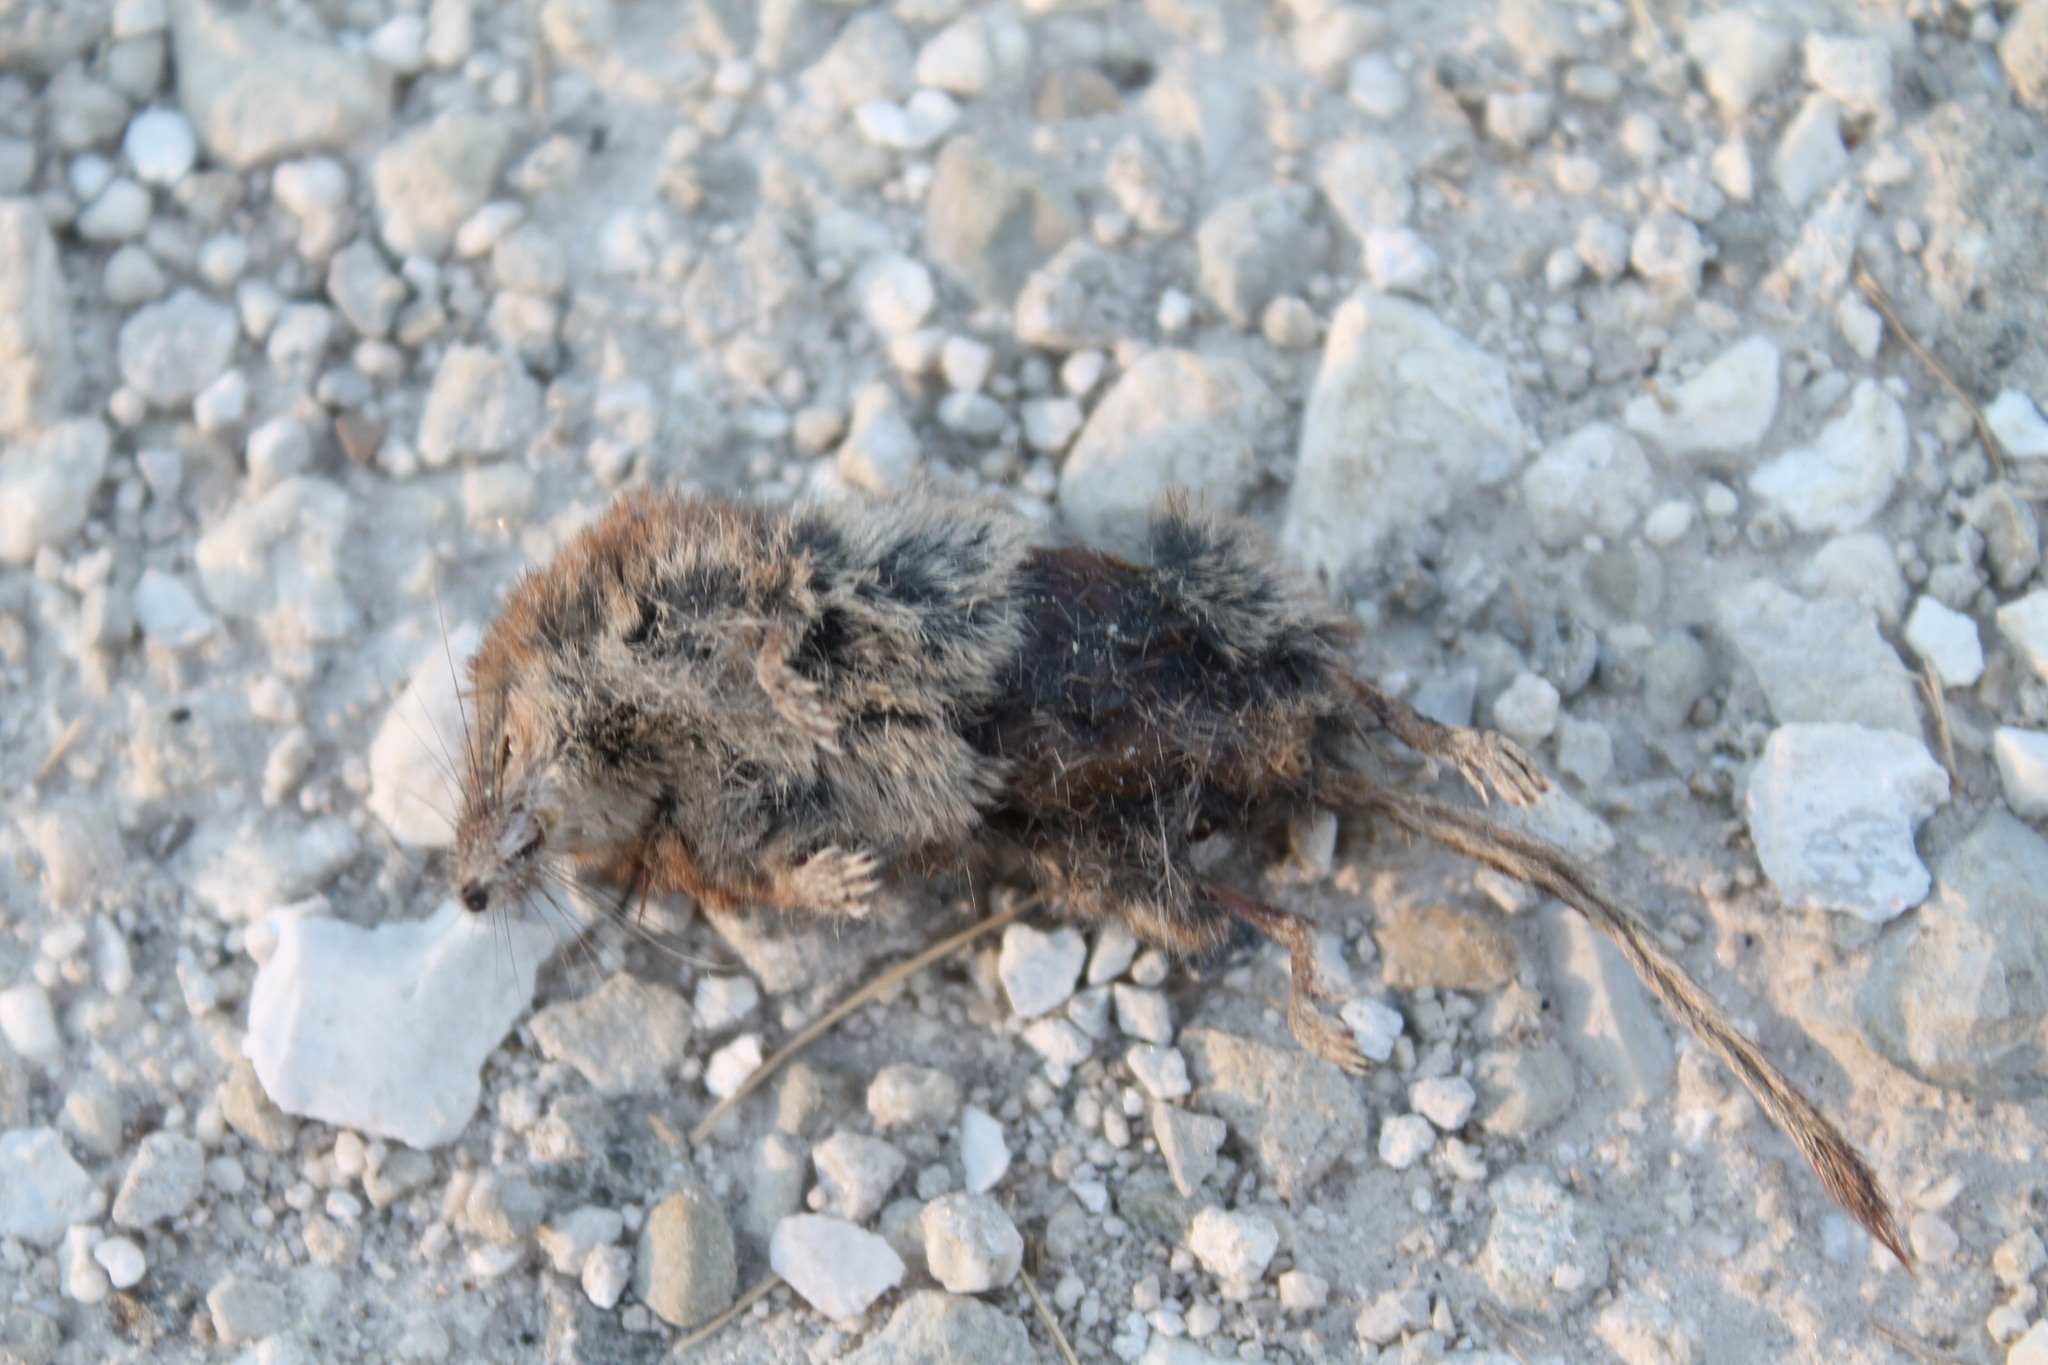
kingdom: Animalia
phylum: Chordata
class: Mammalia
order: Soricomorpha
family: Soricidae
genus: Sorex
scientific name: Sorex cinereus
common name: Cinereus shrew
